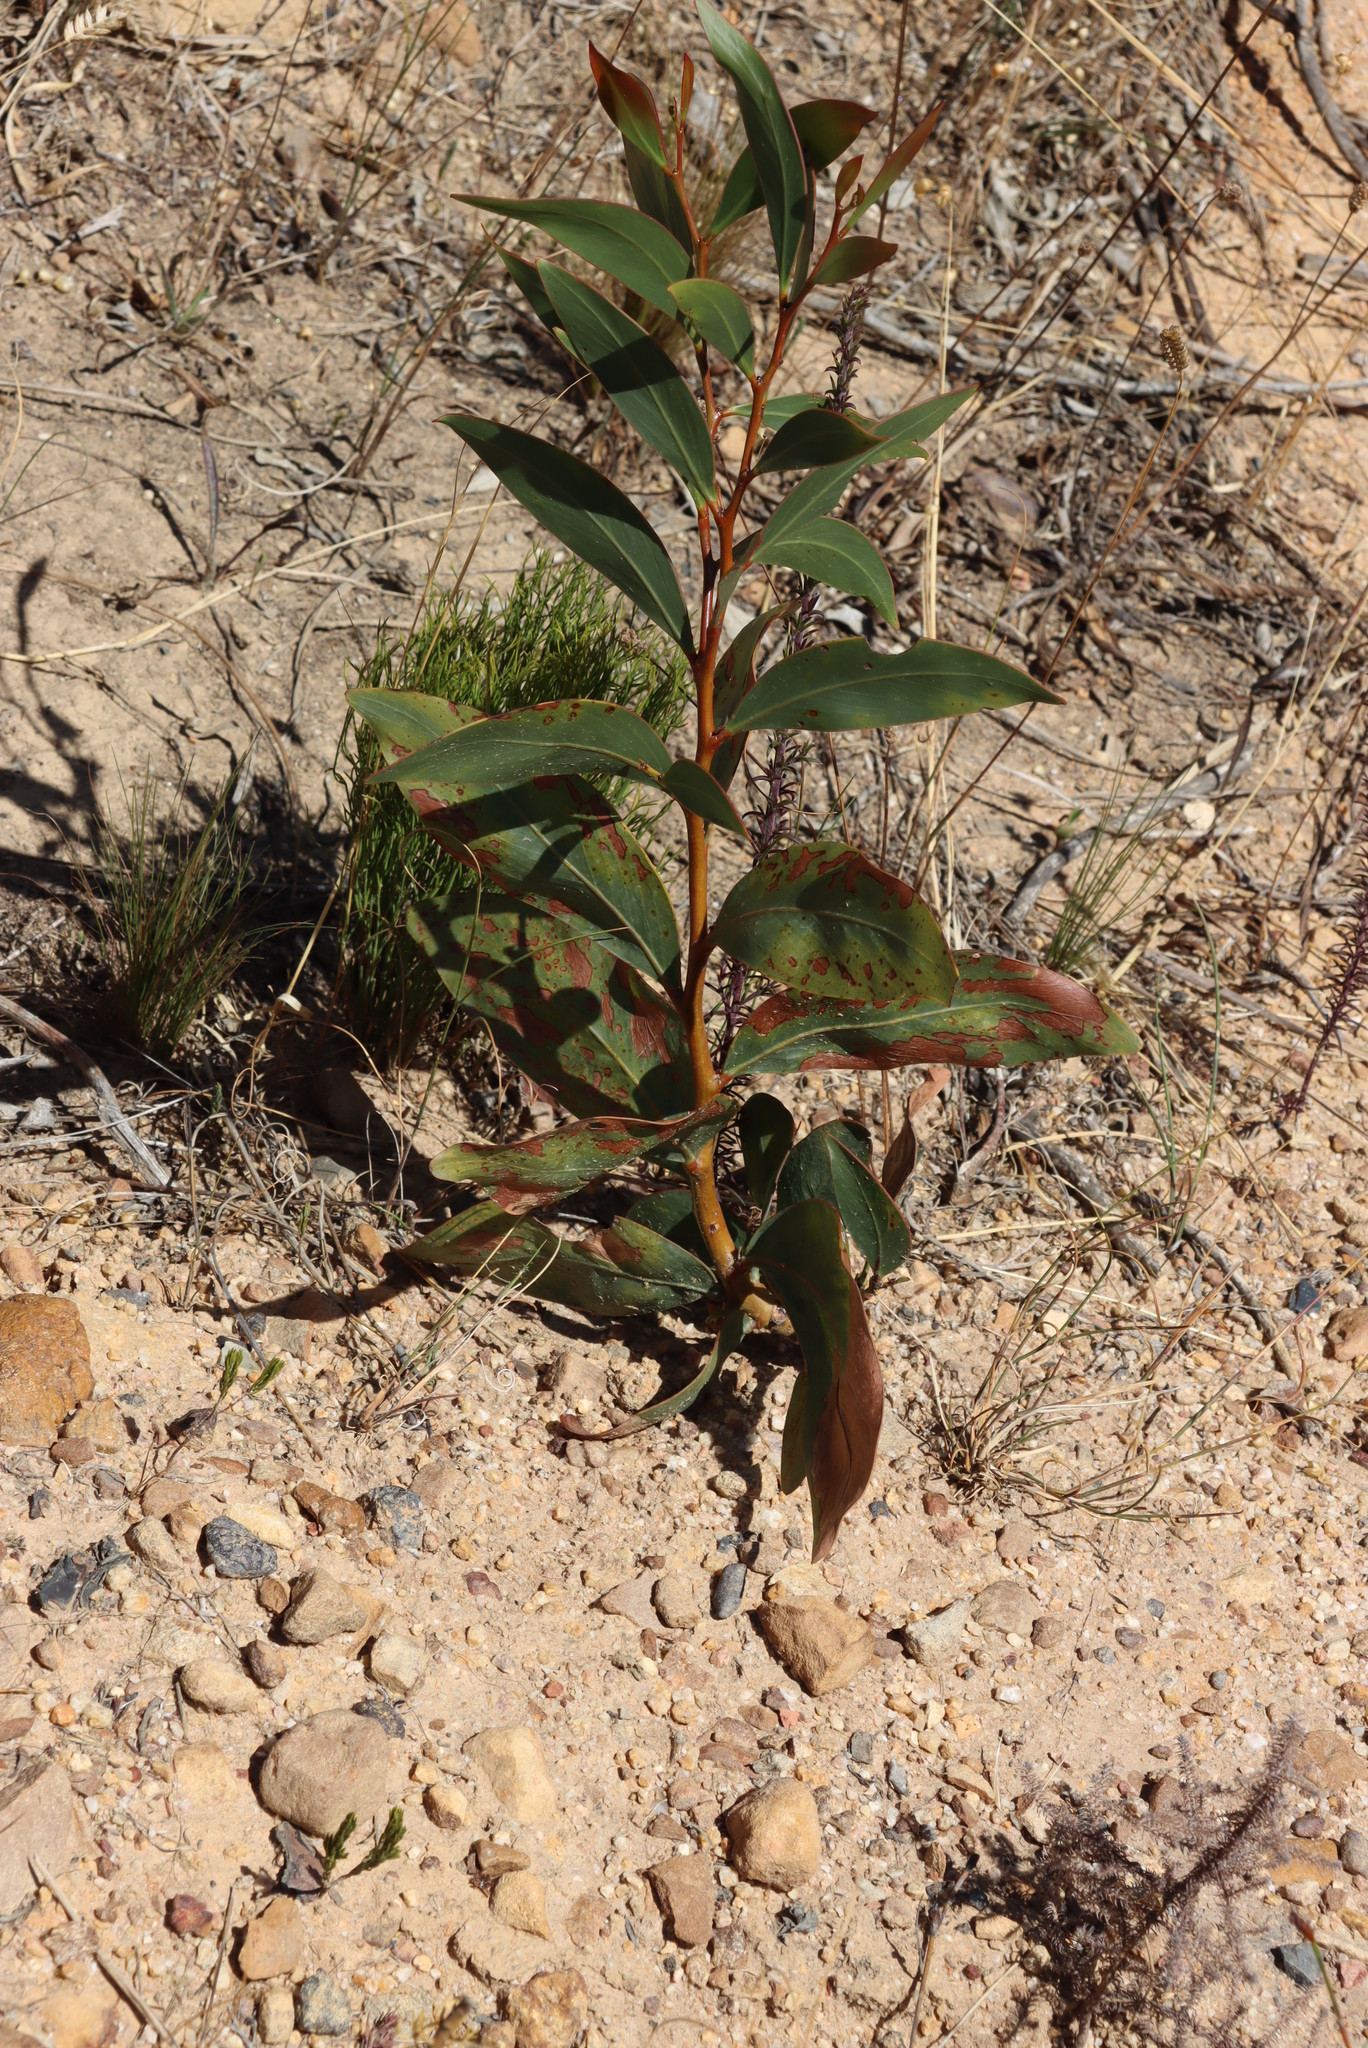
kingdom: Plantae
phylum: Tracheophyta
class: Magnoliopsida
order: Fabales
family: Fabaceae
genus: Acacia
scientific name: Acacia pycnantha
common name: Golden wattle
